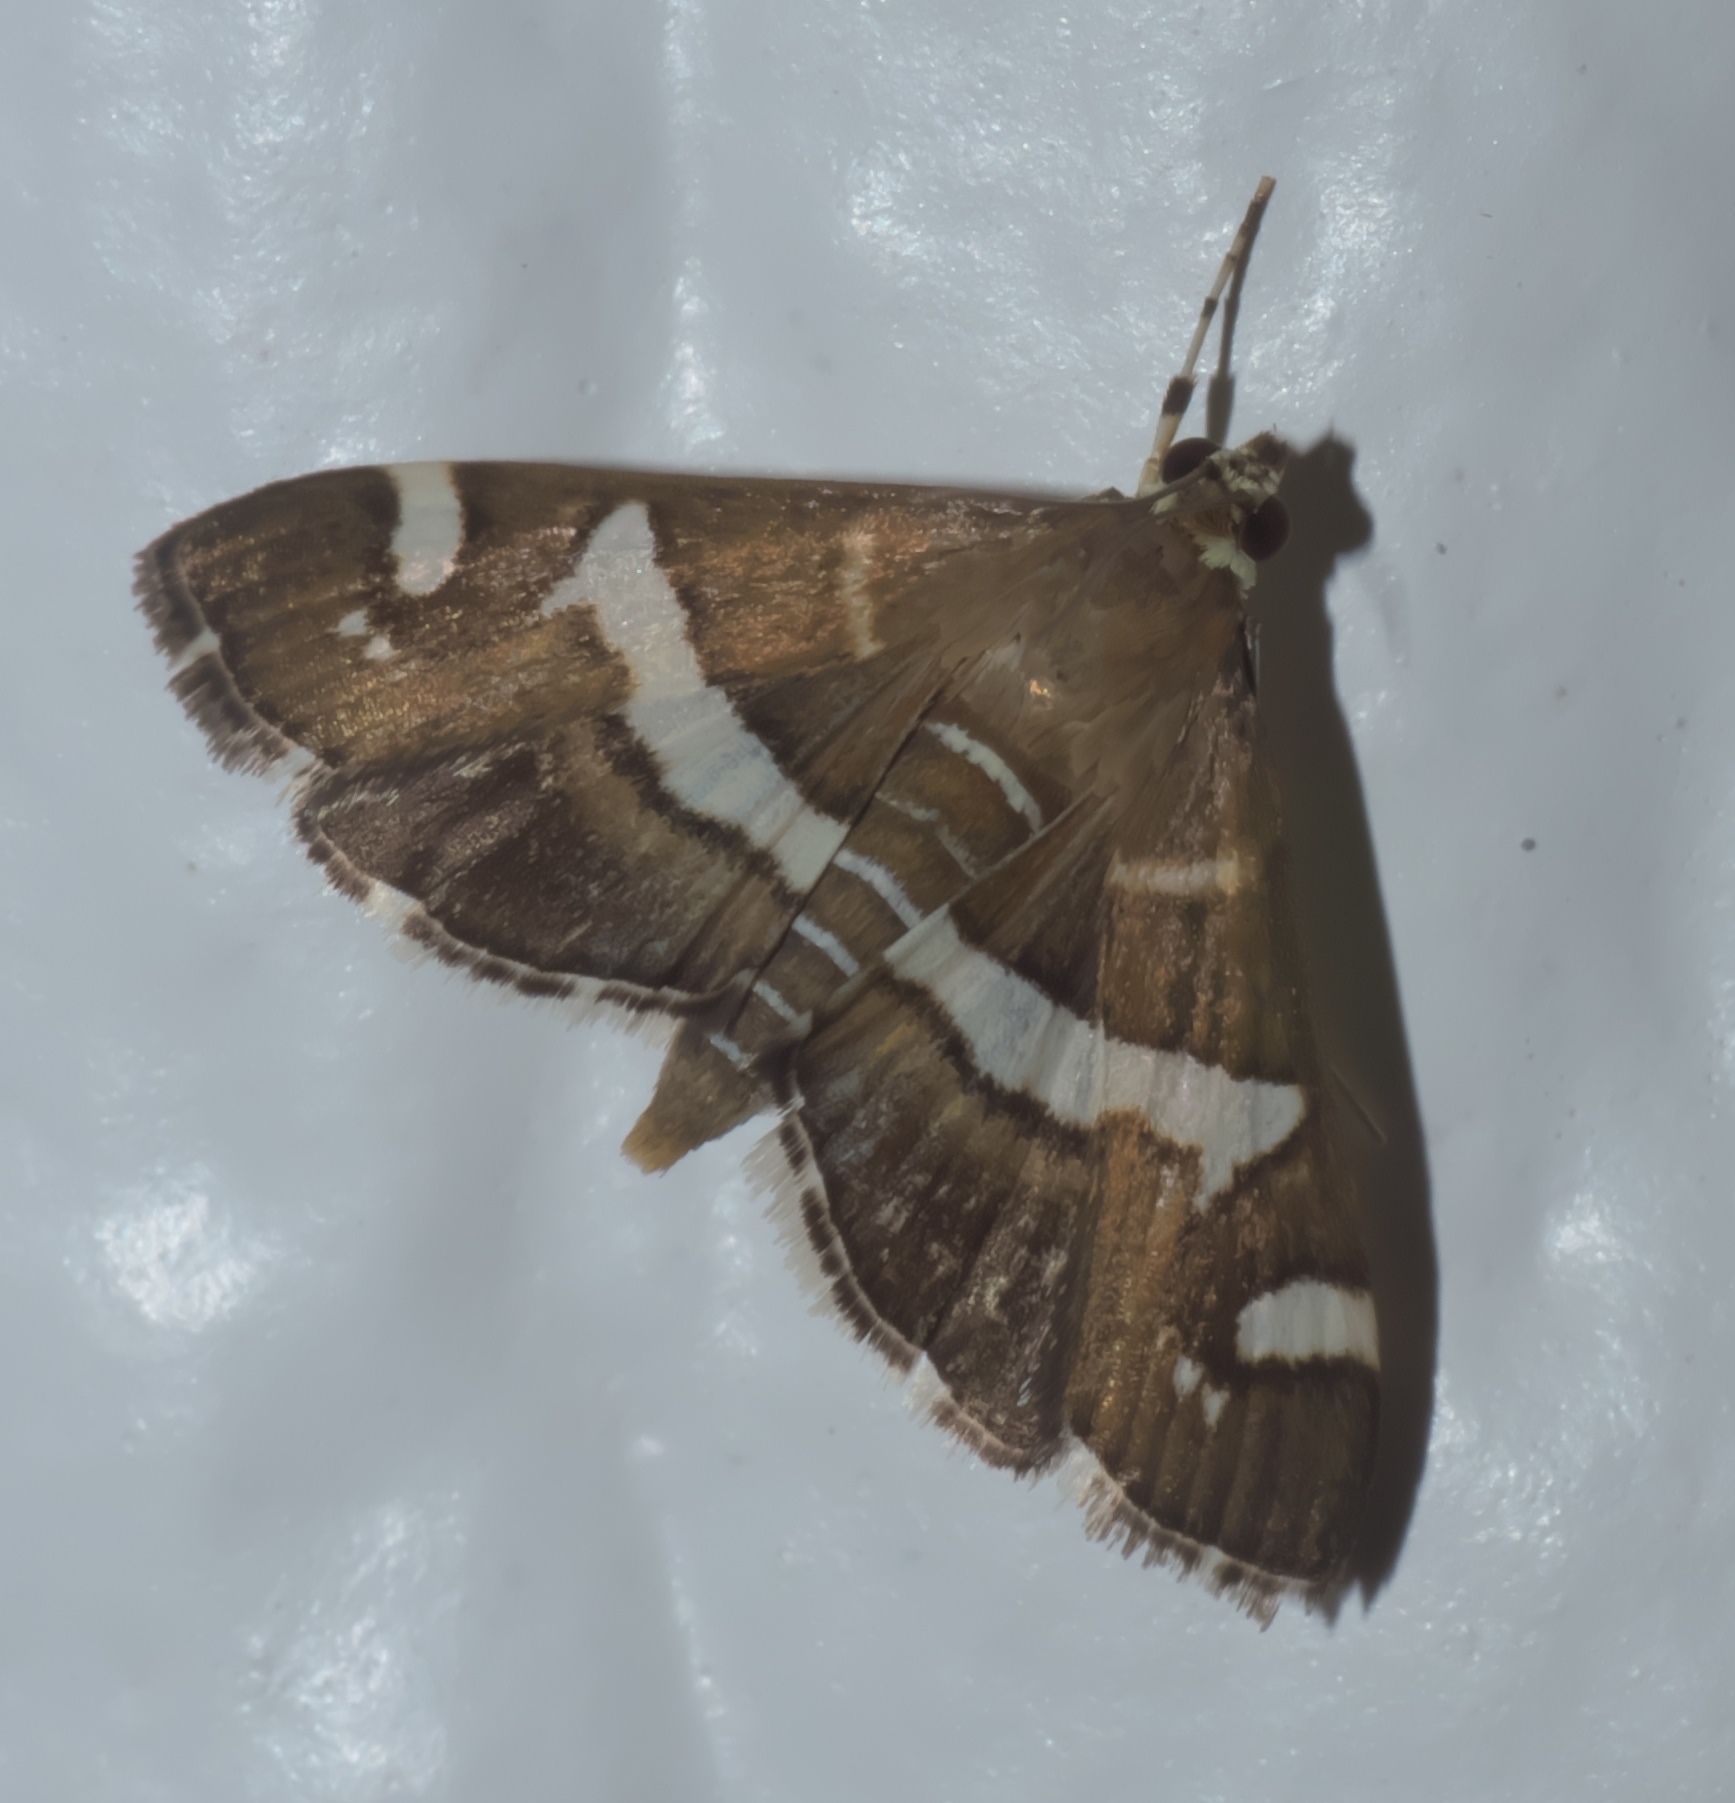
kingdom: Animalia
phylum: Arthropoda
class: Insecta
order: Lepidoptera
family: Crambidae
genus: Spoladea
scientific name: Spoladea recurvalis
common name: Beet webworm moth
